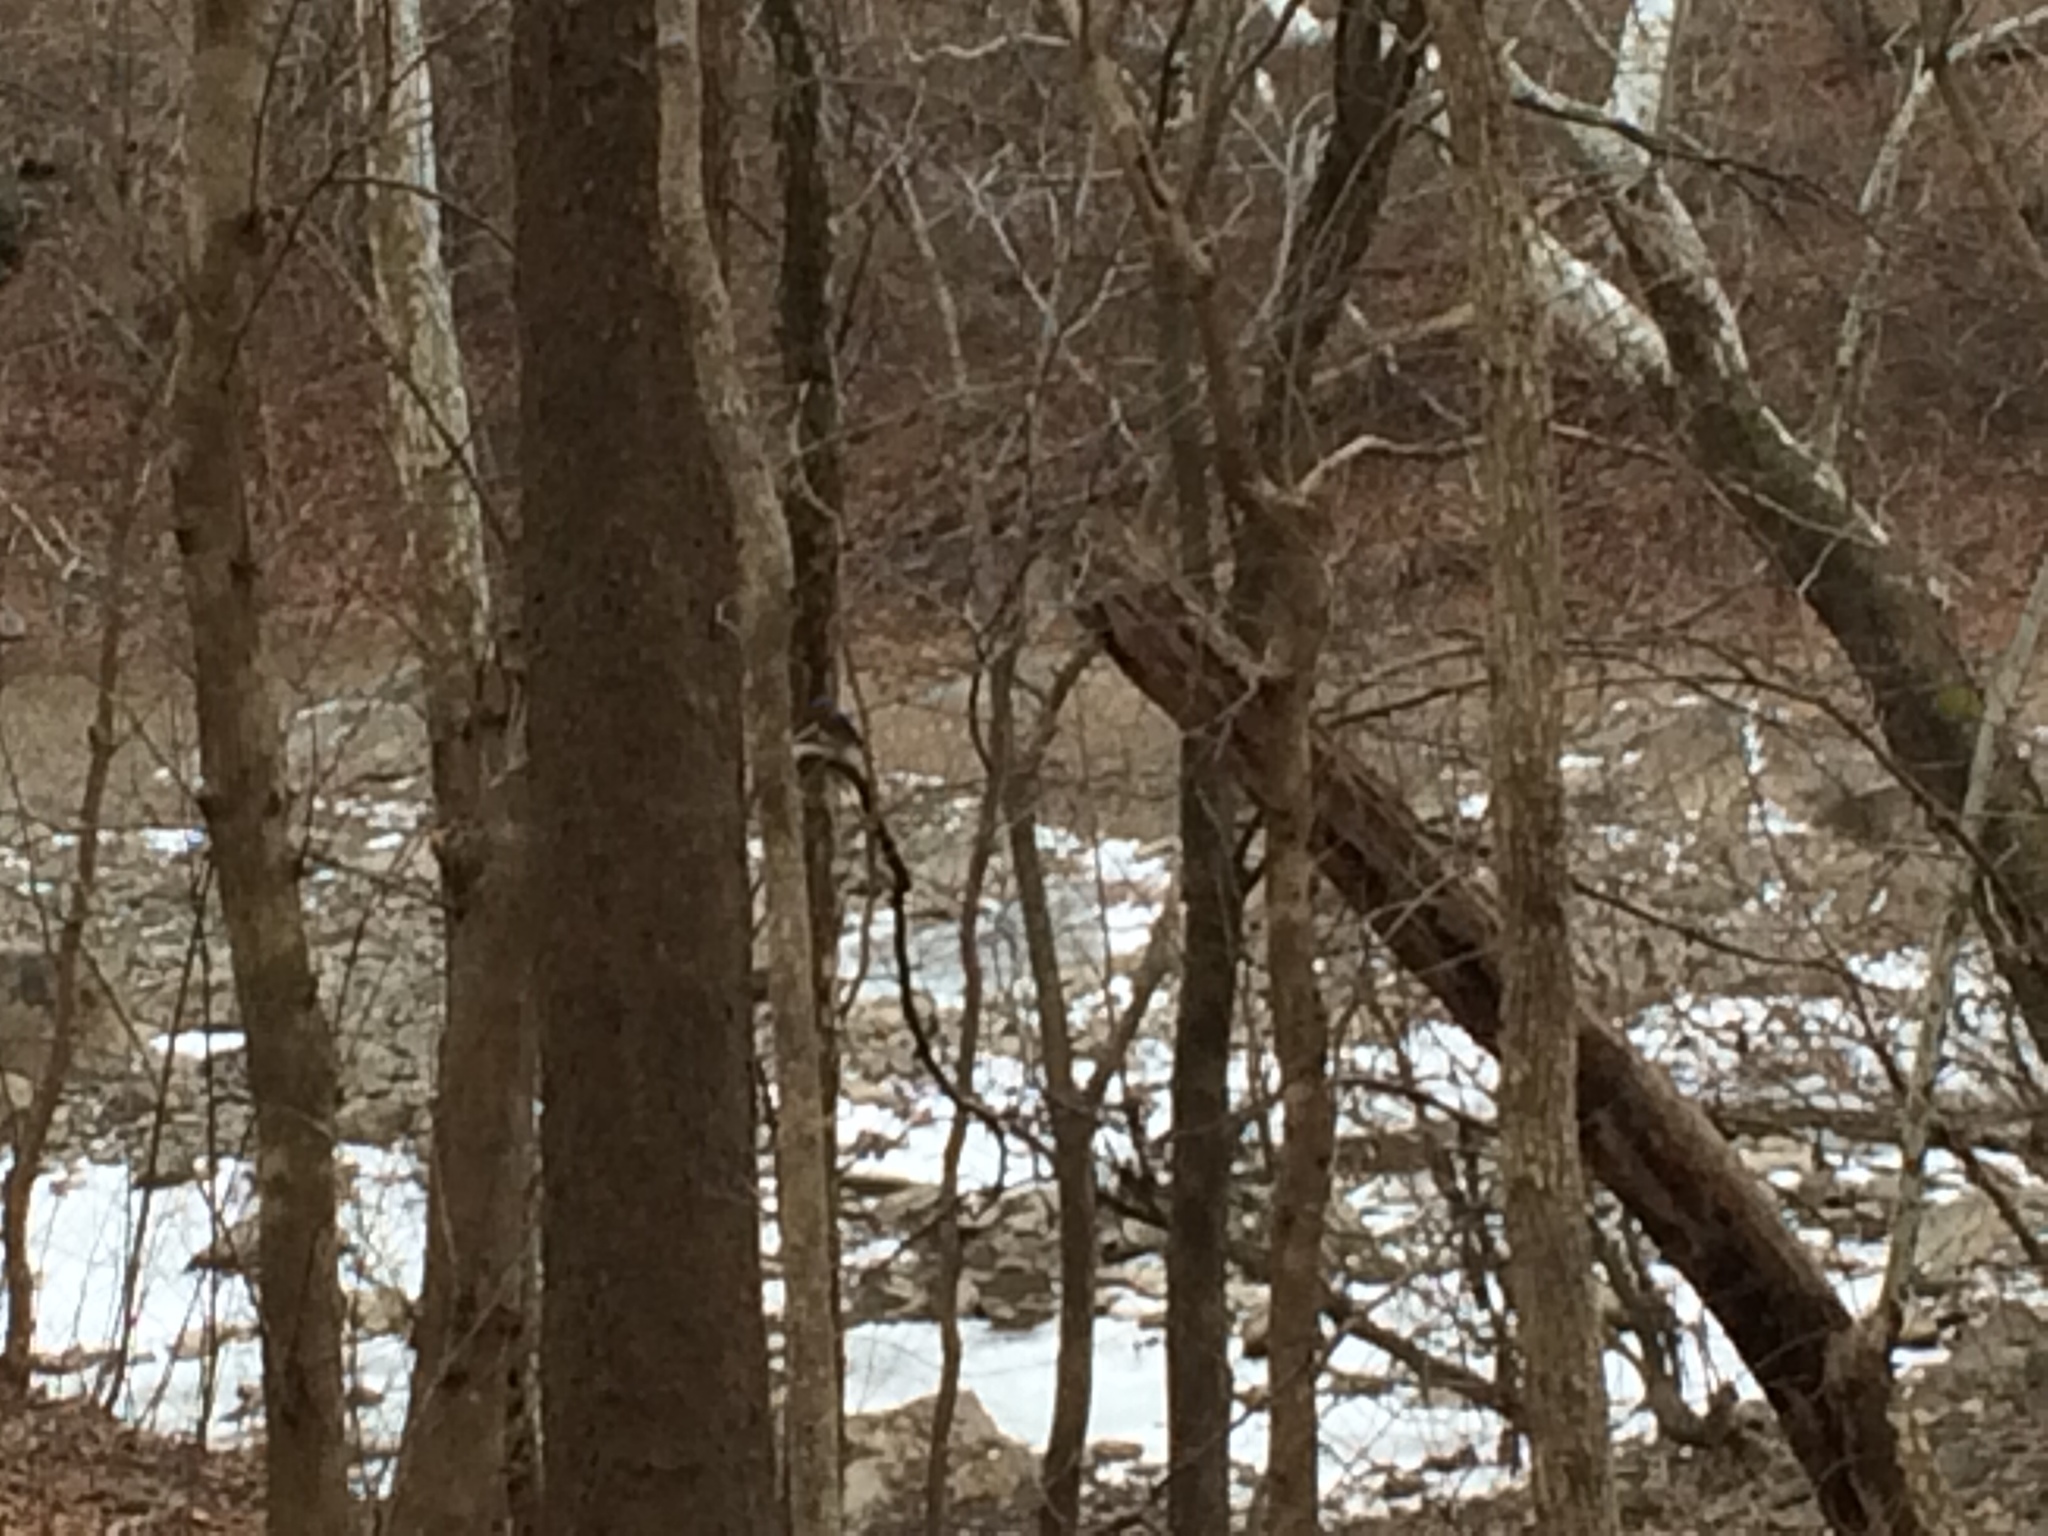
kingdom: Animalia
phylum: Chordata
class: Aves
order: Passeriformes
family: Turdidae
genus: Sialia
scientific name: Sialia sialis
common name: Eastern bluebird
